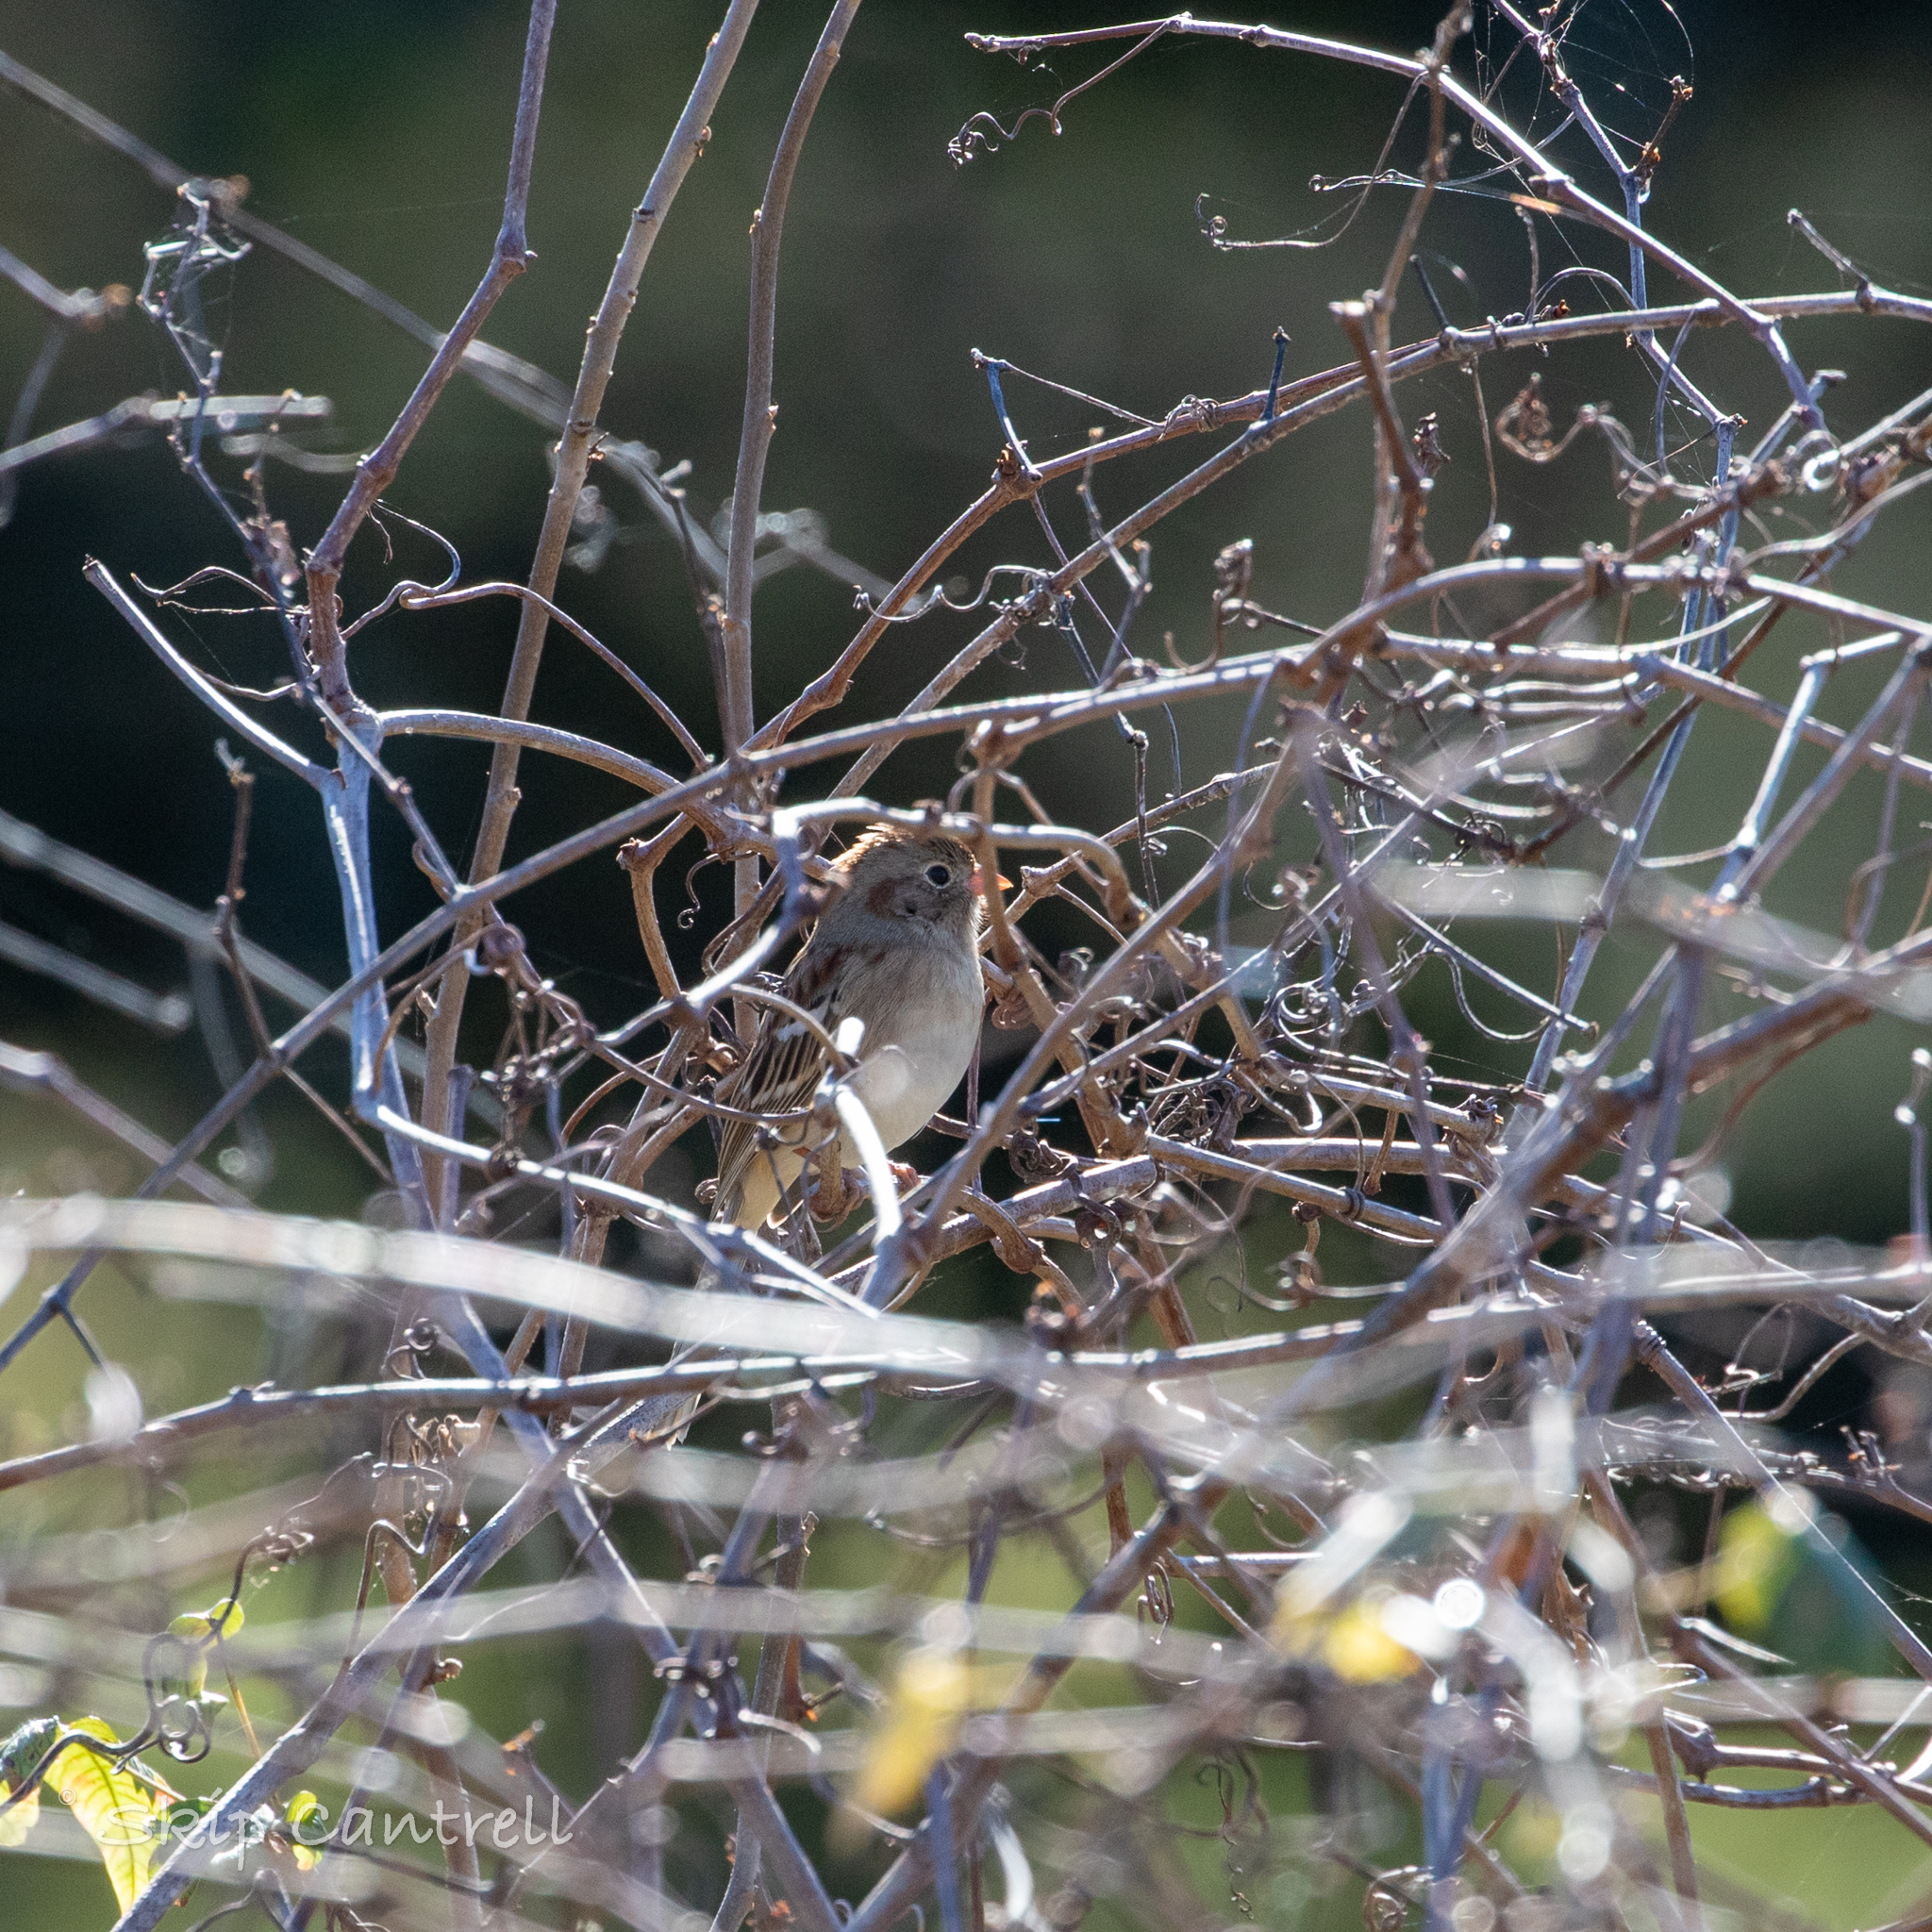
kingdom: Animalia
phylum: Chordata
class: Aves
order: Passeriformes
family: Passerellidae
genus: Spizella
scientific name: Spizella pusilla
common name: Field sparrow
